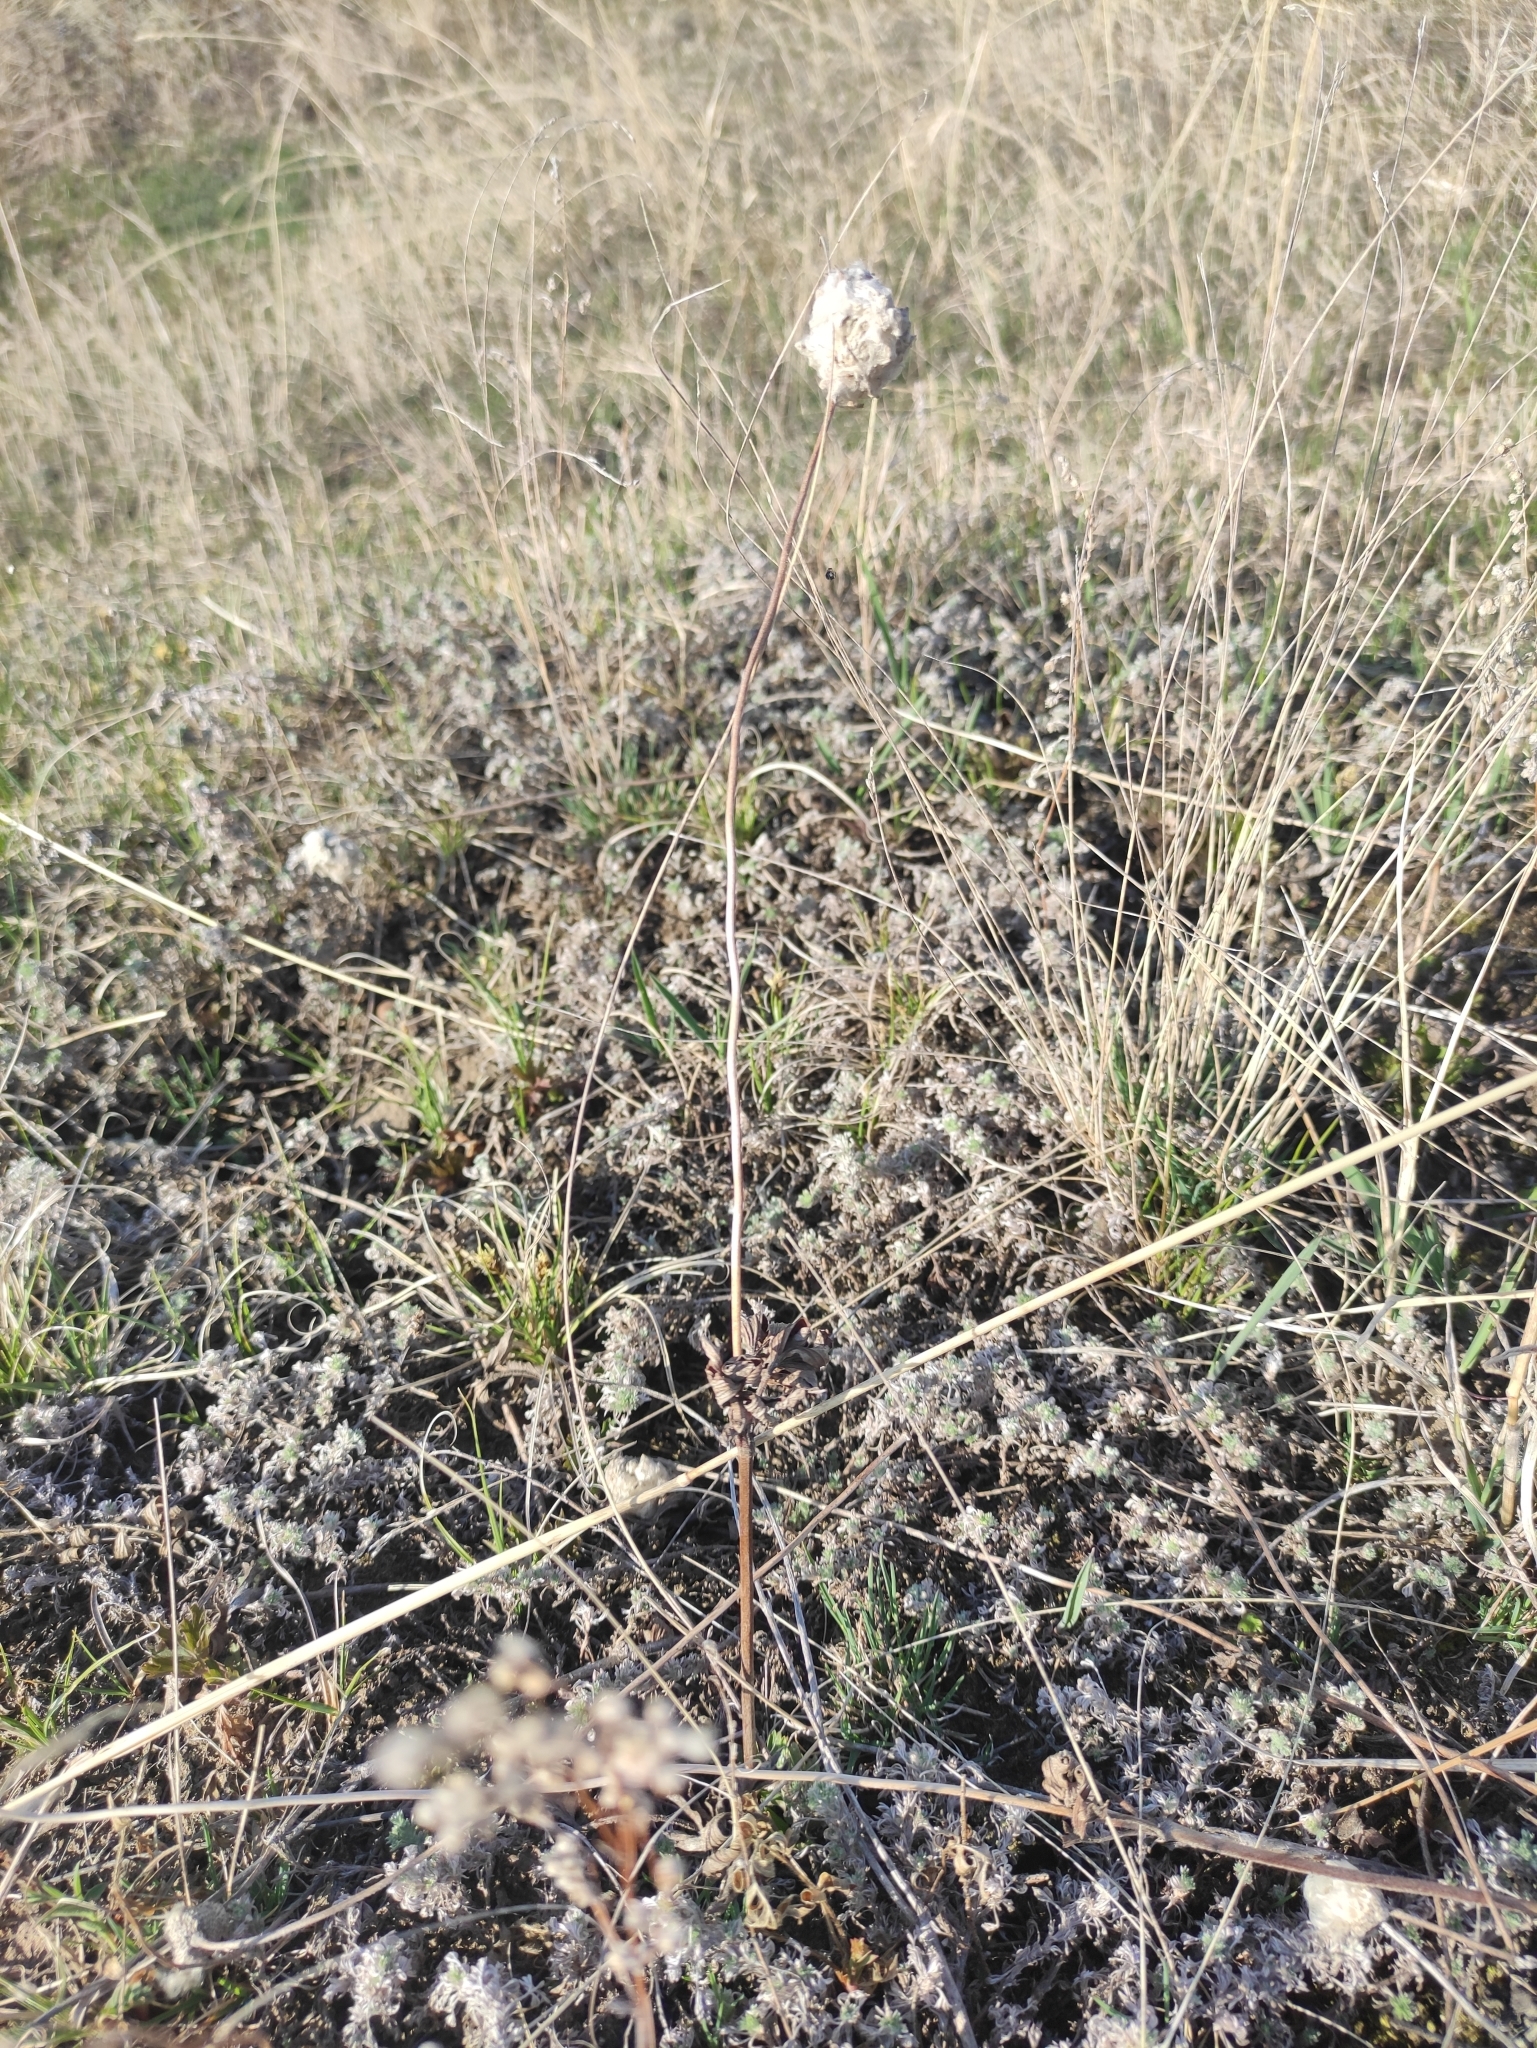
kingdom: Plantae
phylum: Tracheophyta
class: Magnoliopsida
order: Ranunculales
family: Ranunculaceae
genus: Anemone
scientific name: Anemone sylvestris
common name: Snowdrop anemone
